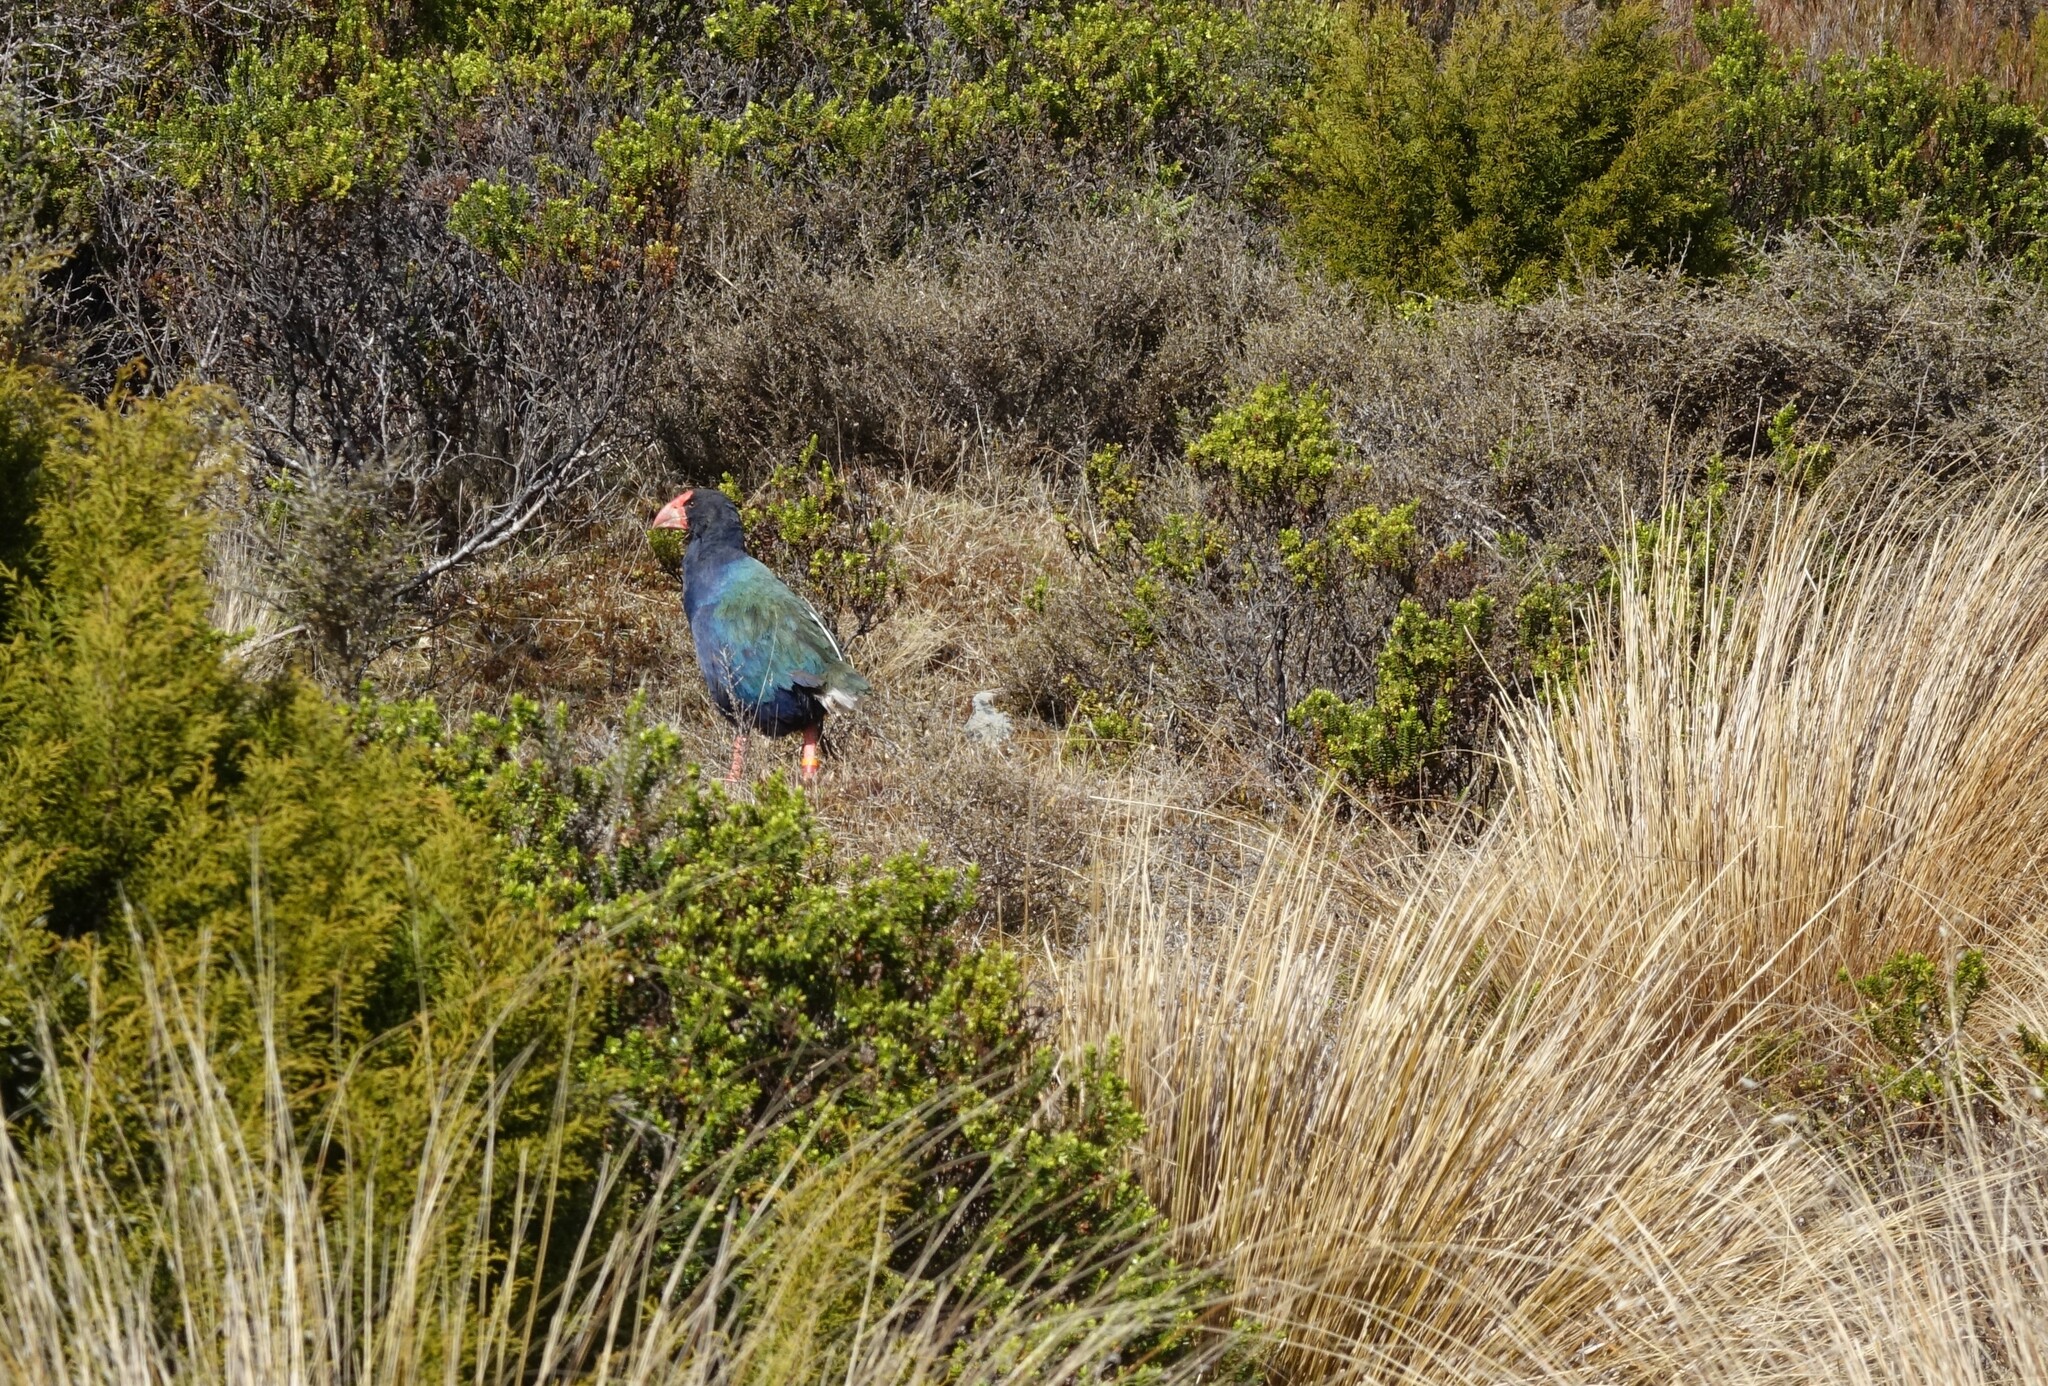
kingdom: Animalia
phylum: Chordata
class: Aves
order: Gruiformes
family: Rallidae
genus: Porphyrio
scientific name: Porphyrio hochstetteri
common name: South island takahe
